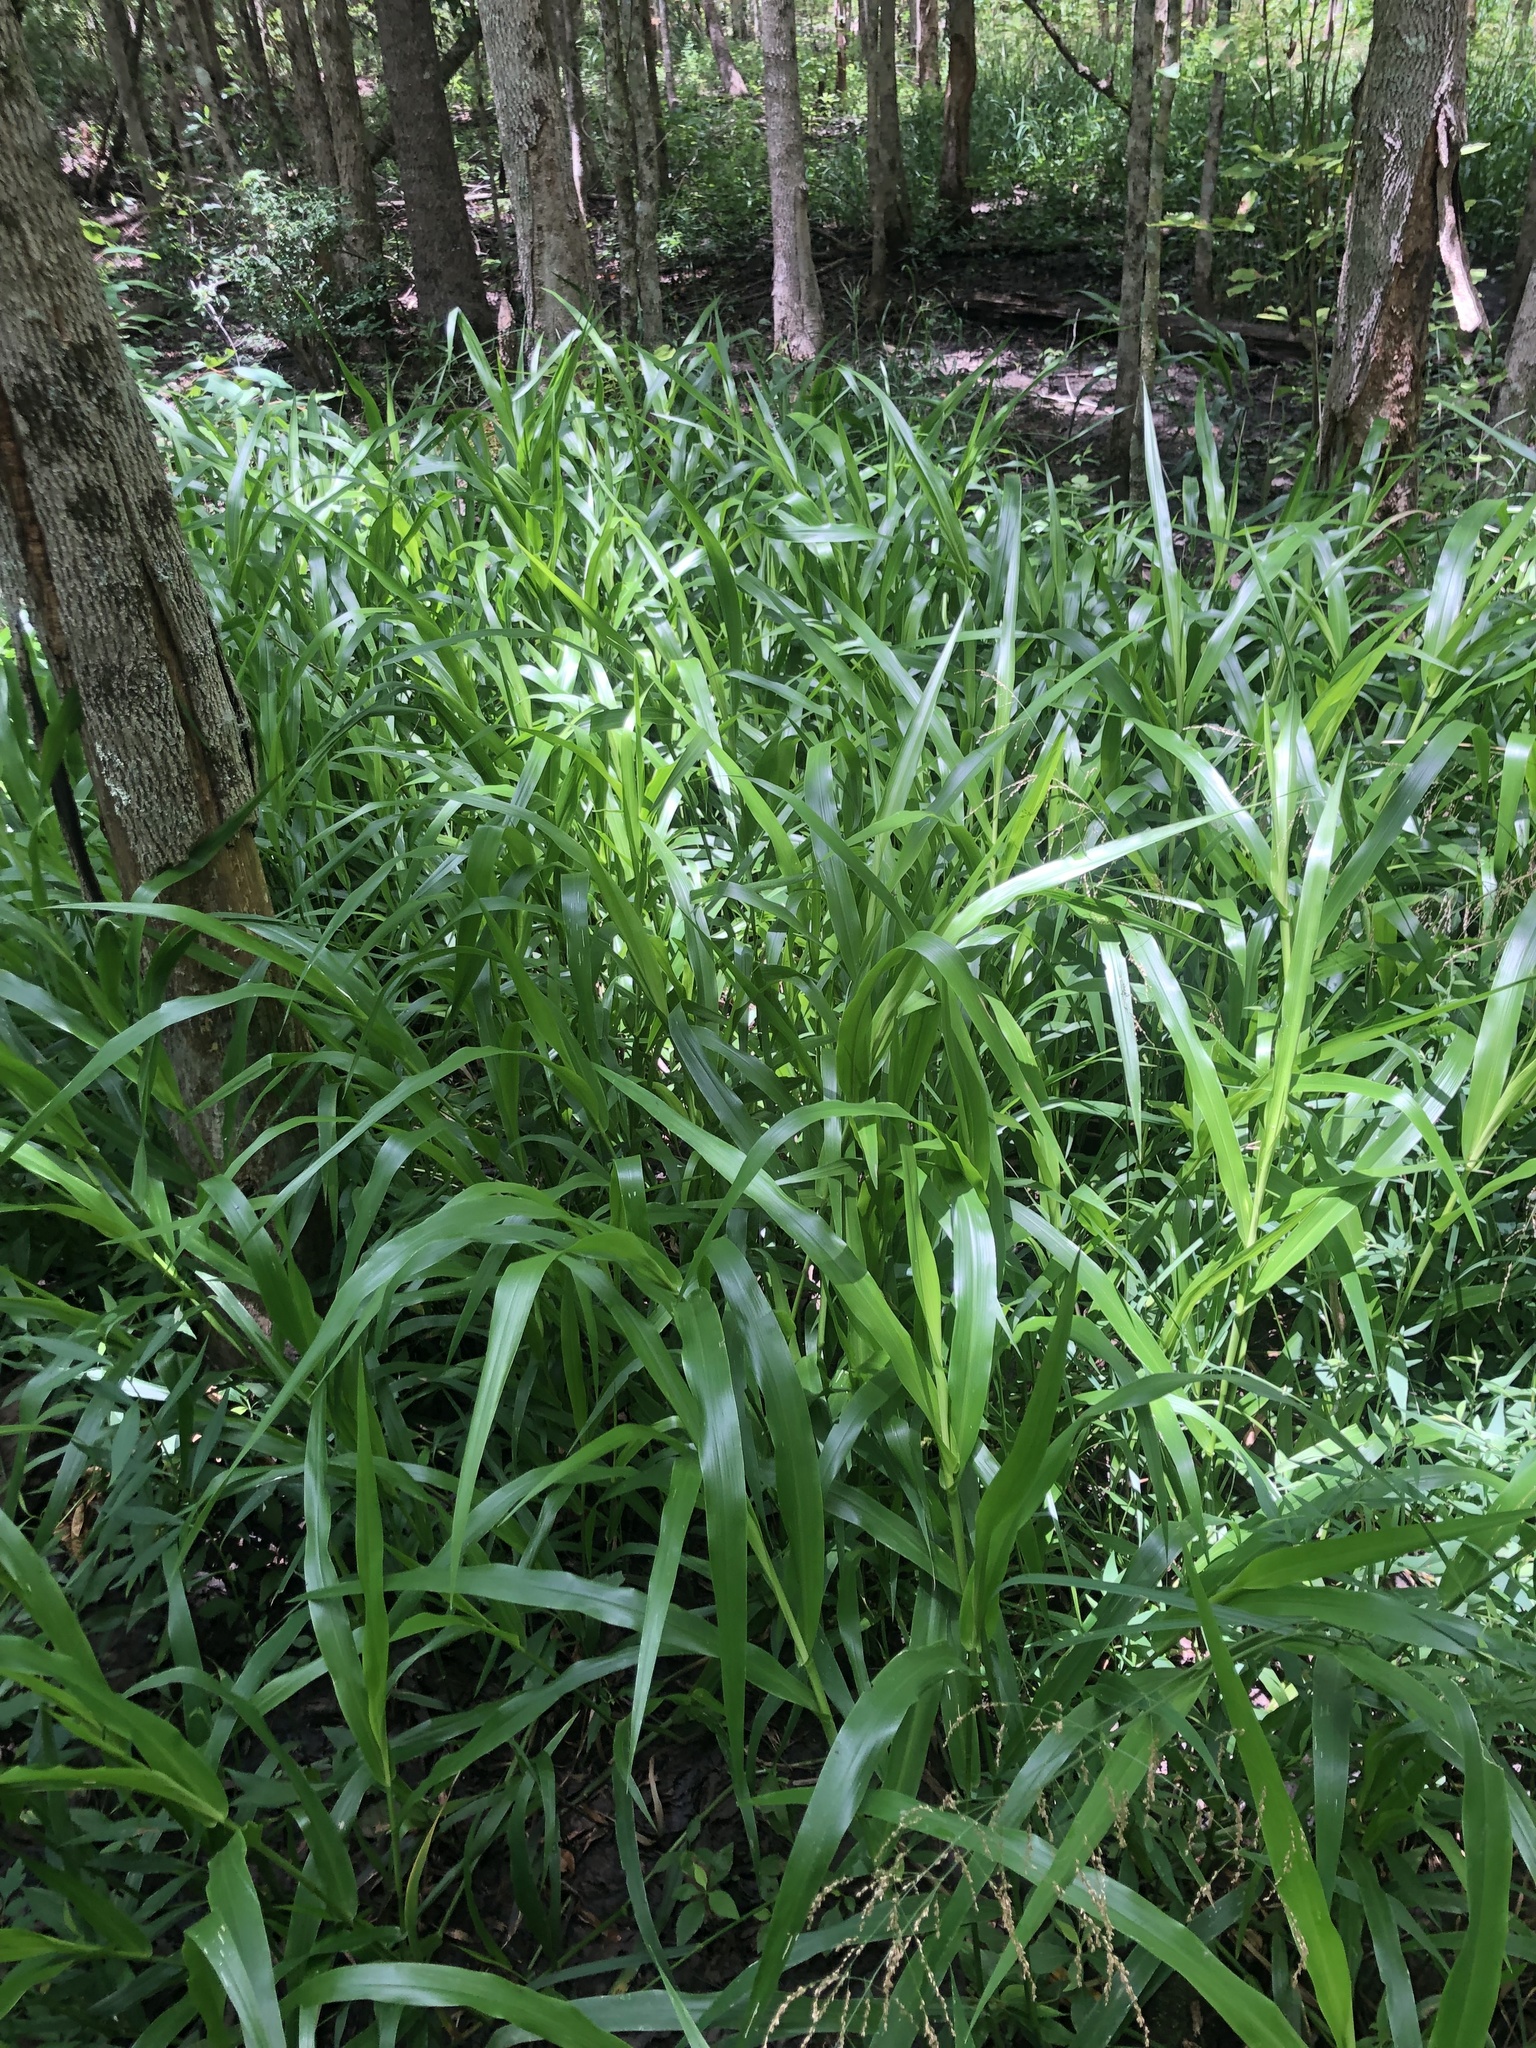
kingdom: Plantae
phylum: Tracheophyta
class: Liliopsida
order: Poales
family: Poaceae
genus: Panicum
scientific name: Panicum gymnocarpon
